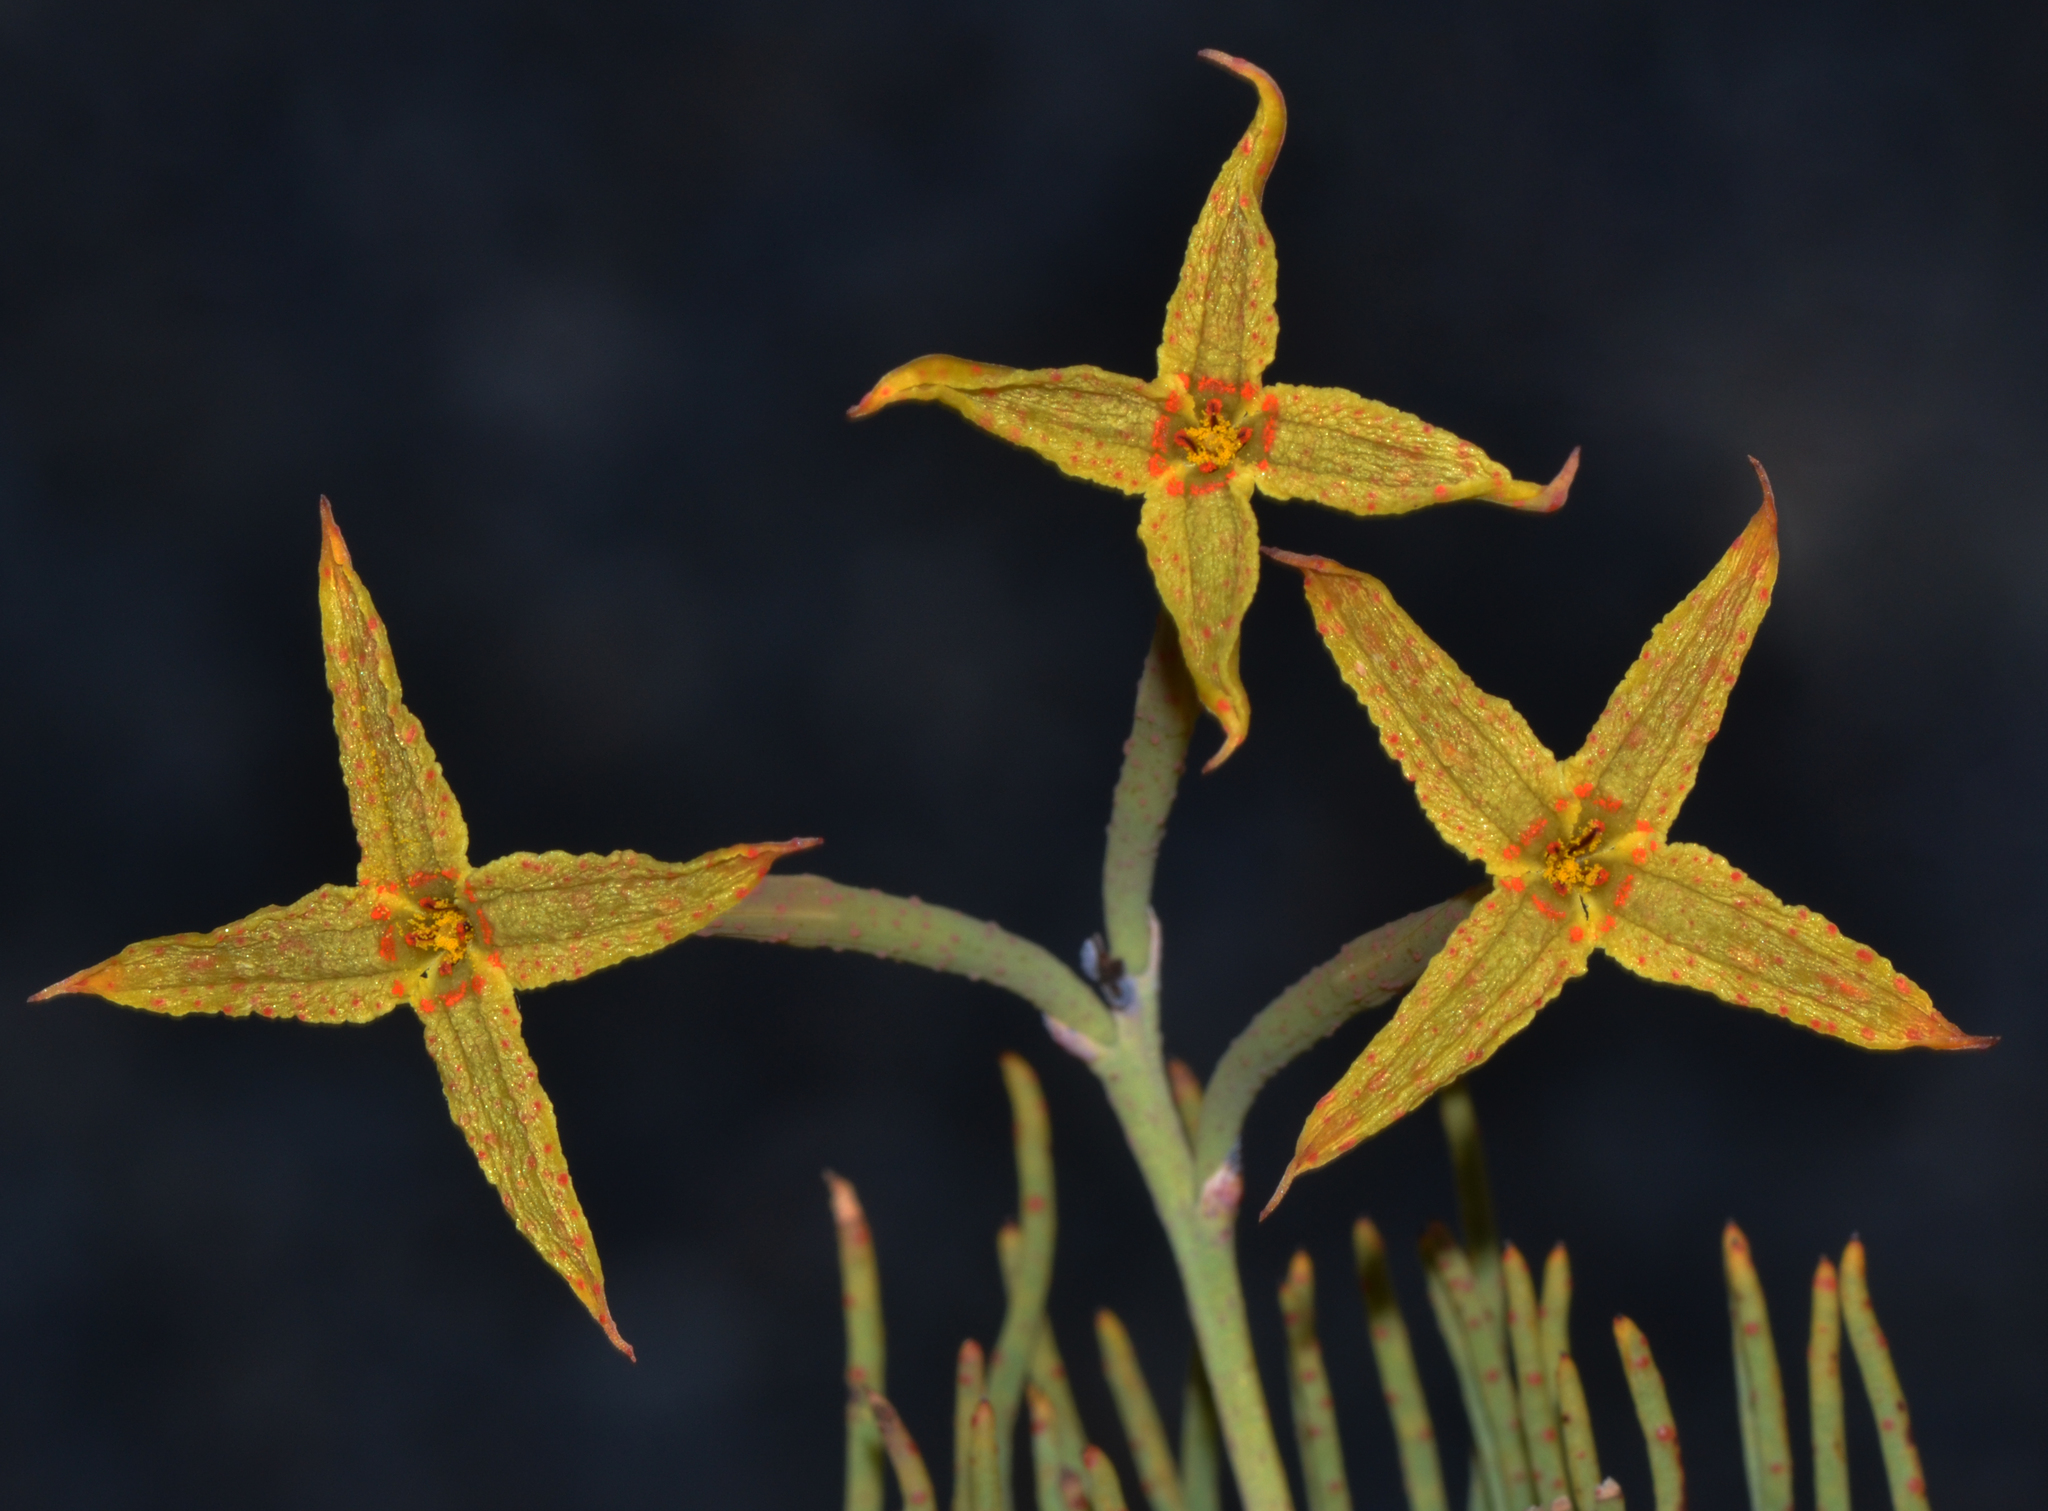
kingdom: Plantae
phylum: Tracheophyta
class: Magnoliopsida
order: Proteales
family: Proteaceae
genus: Franklandia
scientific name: Franklandia fucifolia
